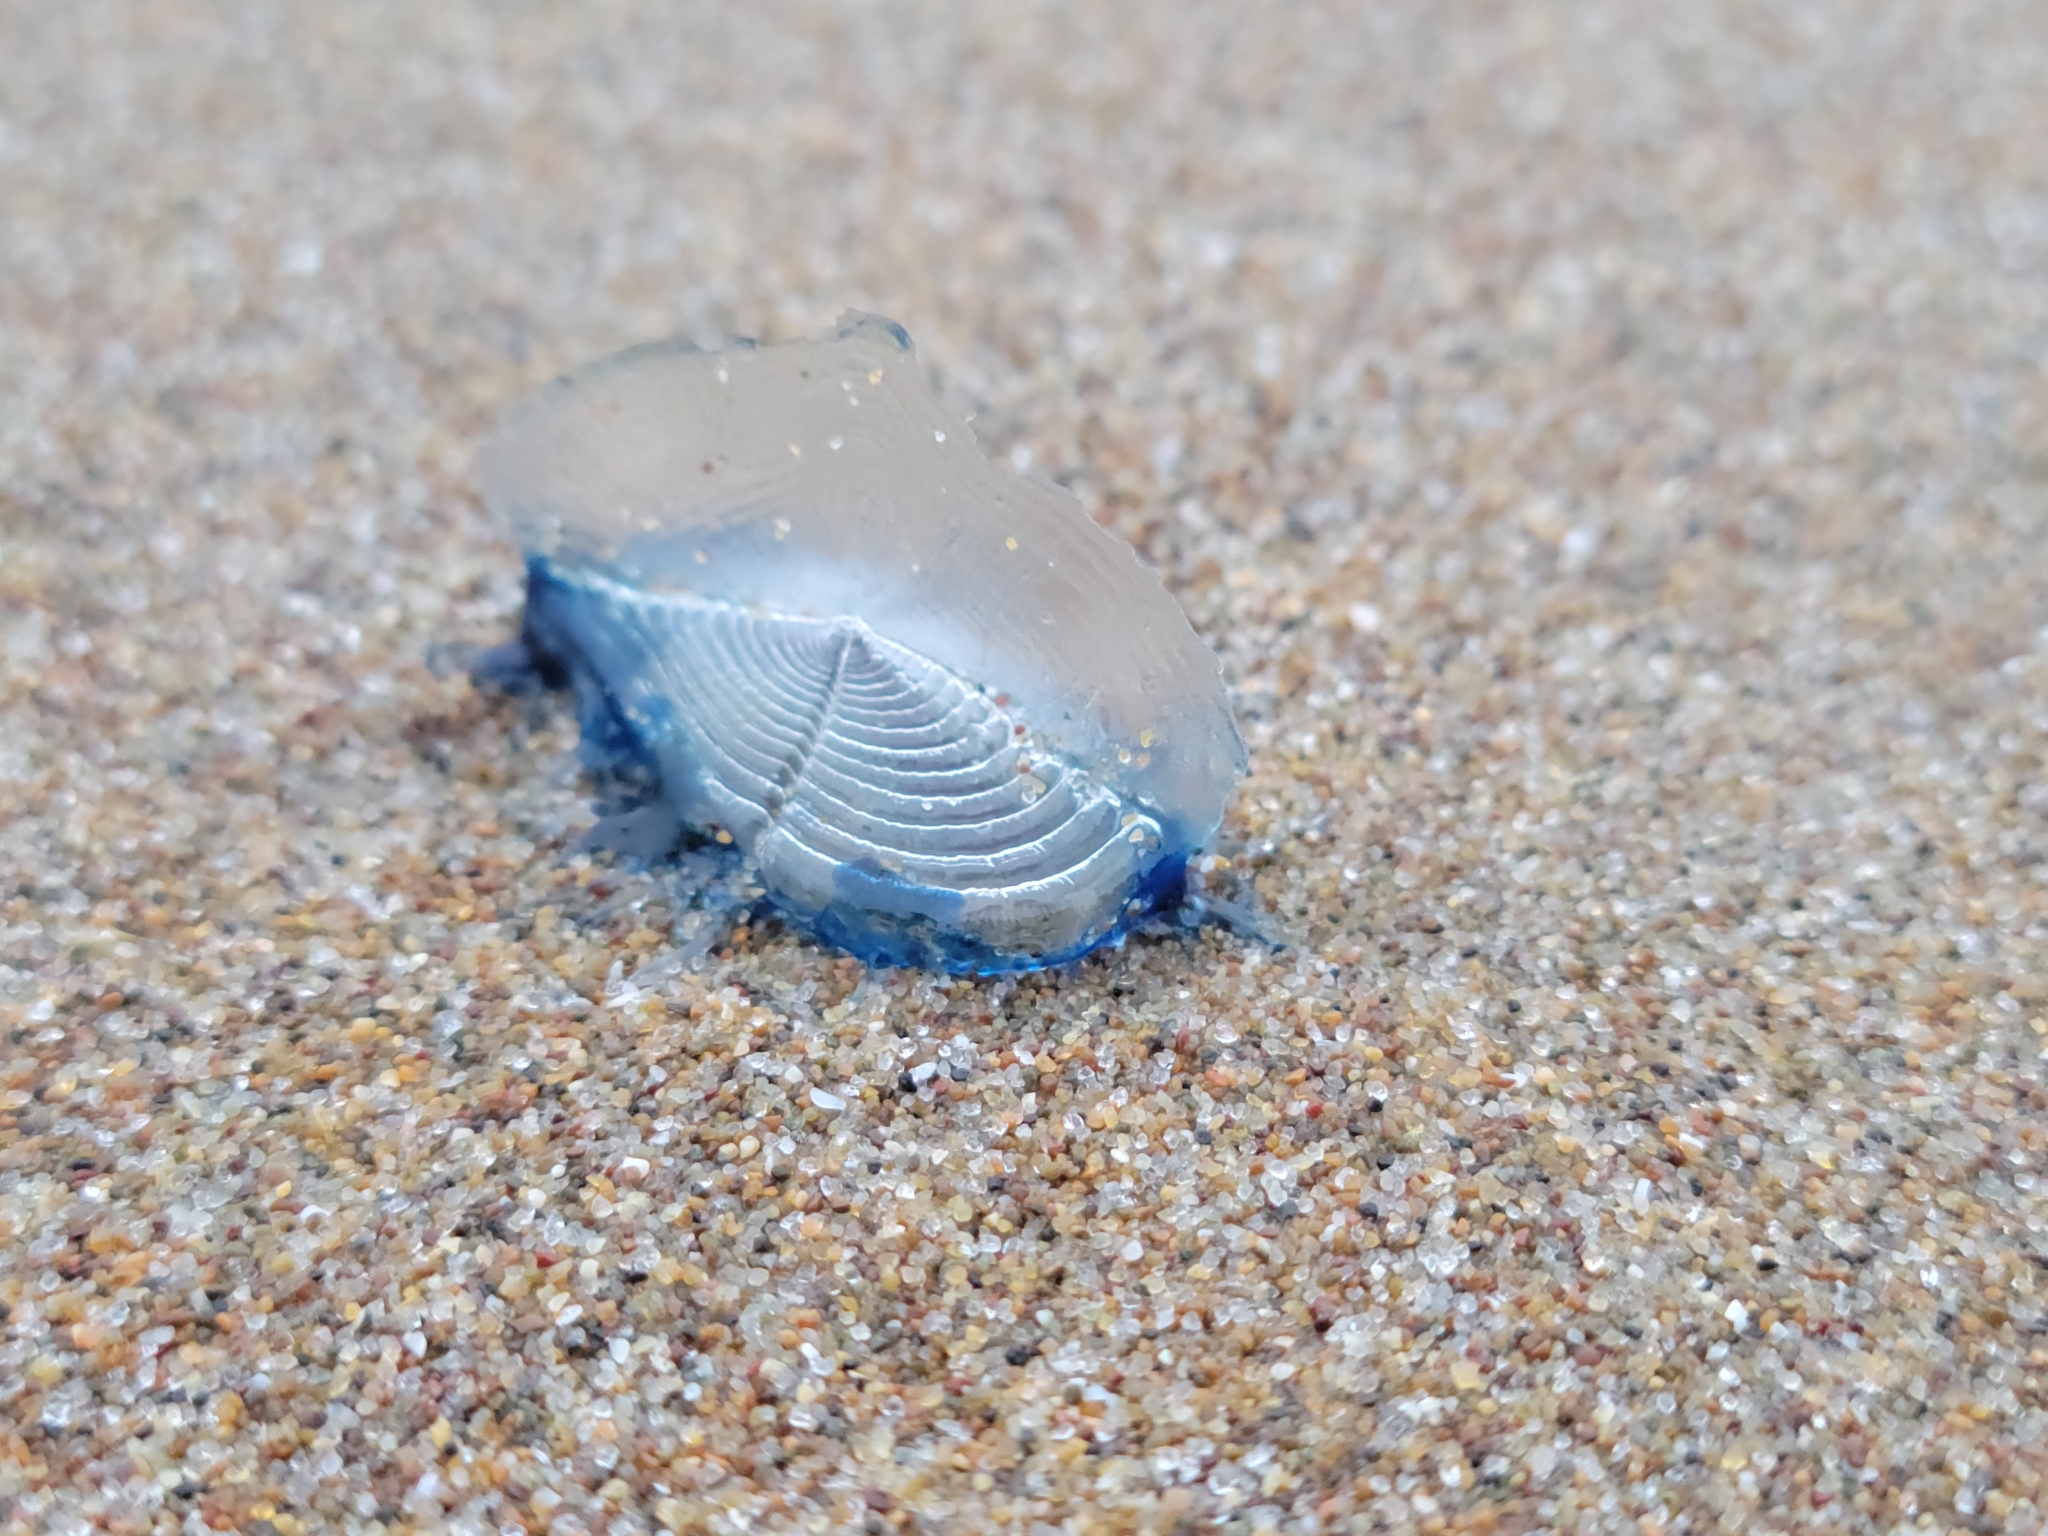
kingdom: Animalia
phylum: Cnidaria
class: Hydrozoa
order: Anthoathecata
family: Porpitidae
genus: Velella
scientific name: Velella velella
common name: By-the-wind-sailor
